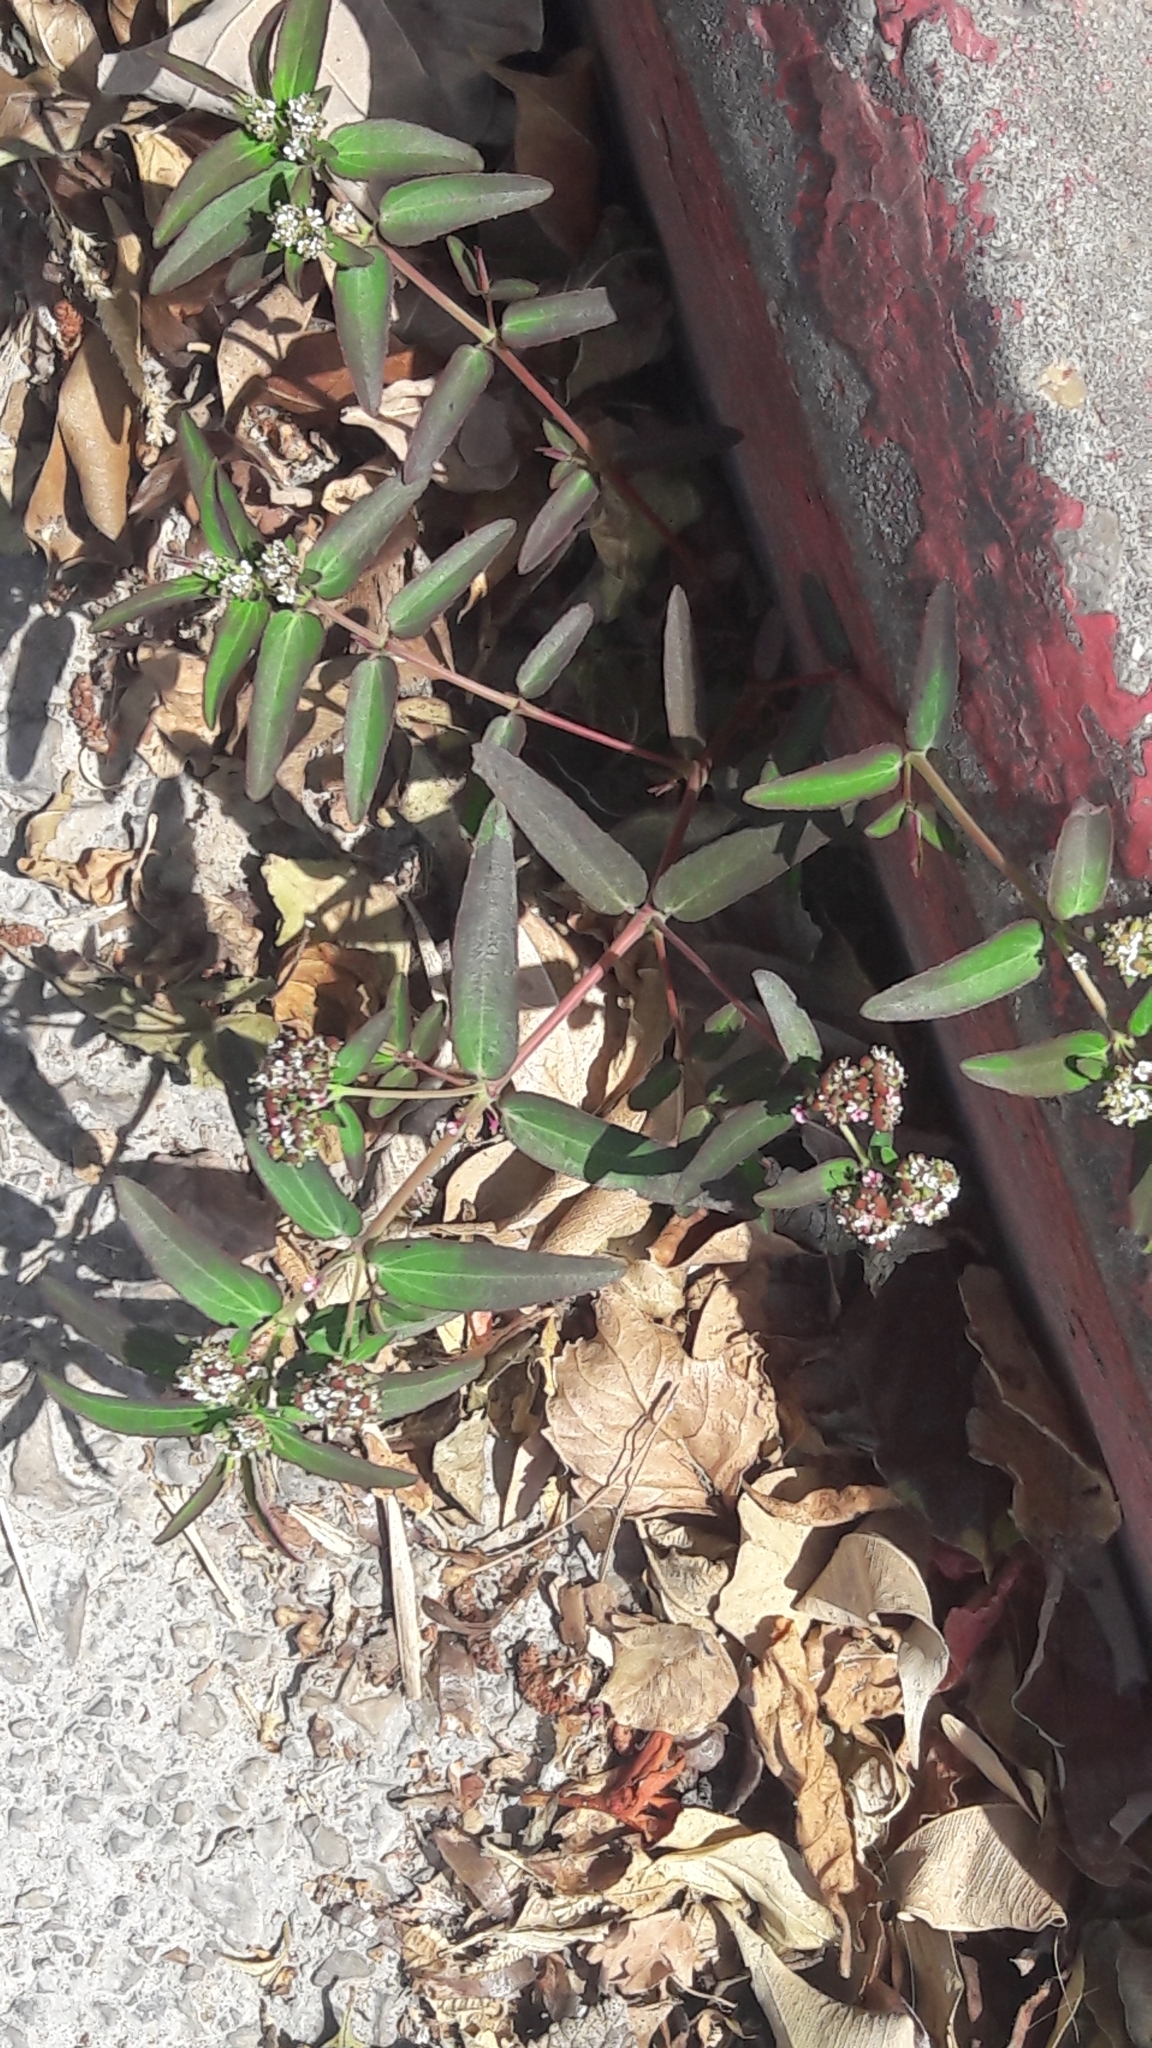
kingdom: Plantae
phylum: Tracheophyta
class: Magnoliopsida
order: Malpighiales
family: Euphorbiaceae
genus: Euphorbia
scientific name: Euphorbia hypericifolia
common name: Graceful sandmat
